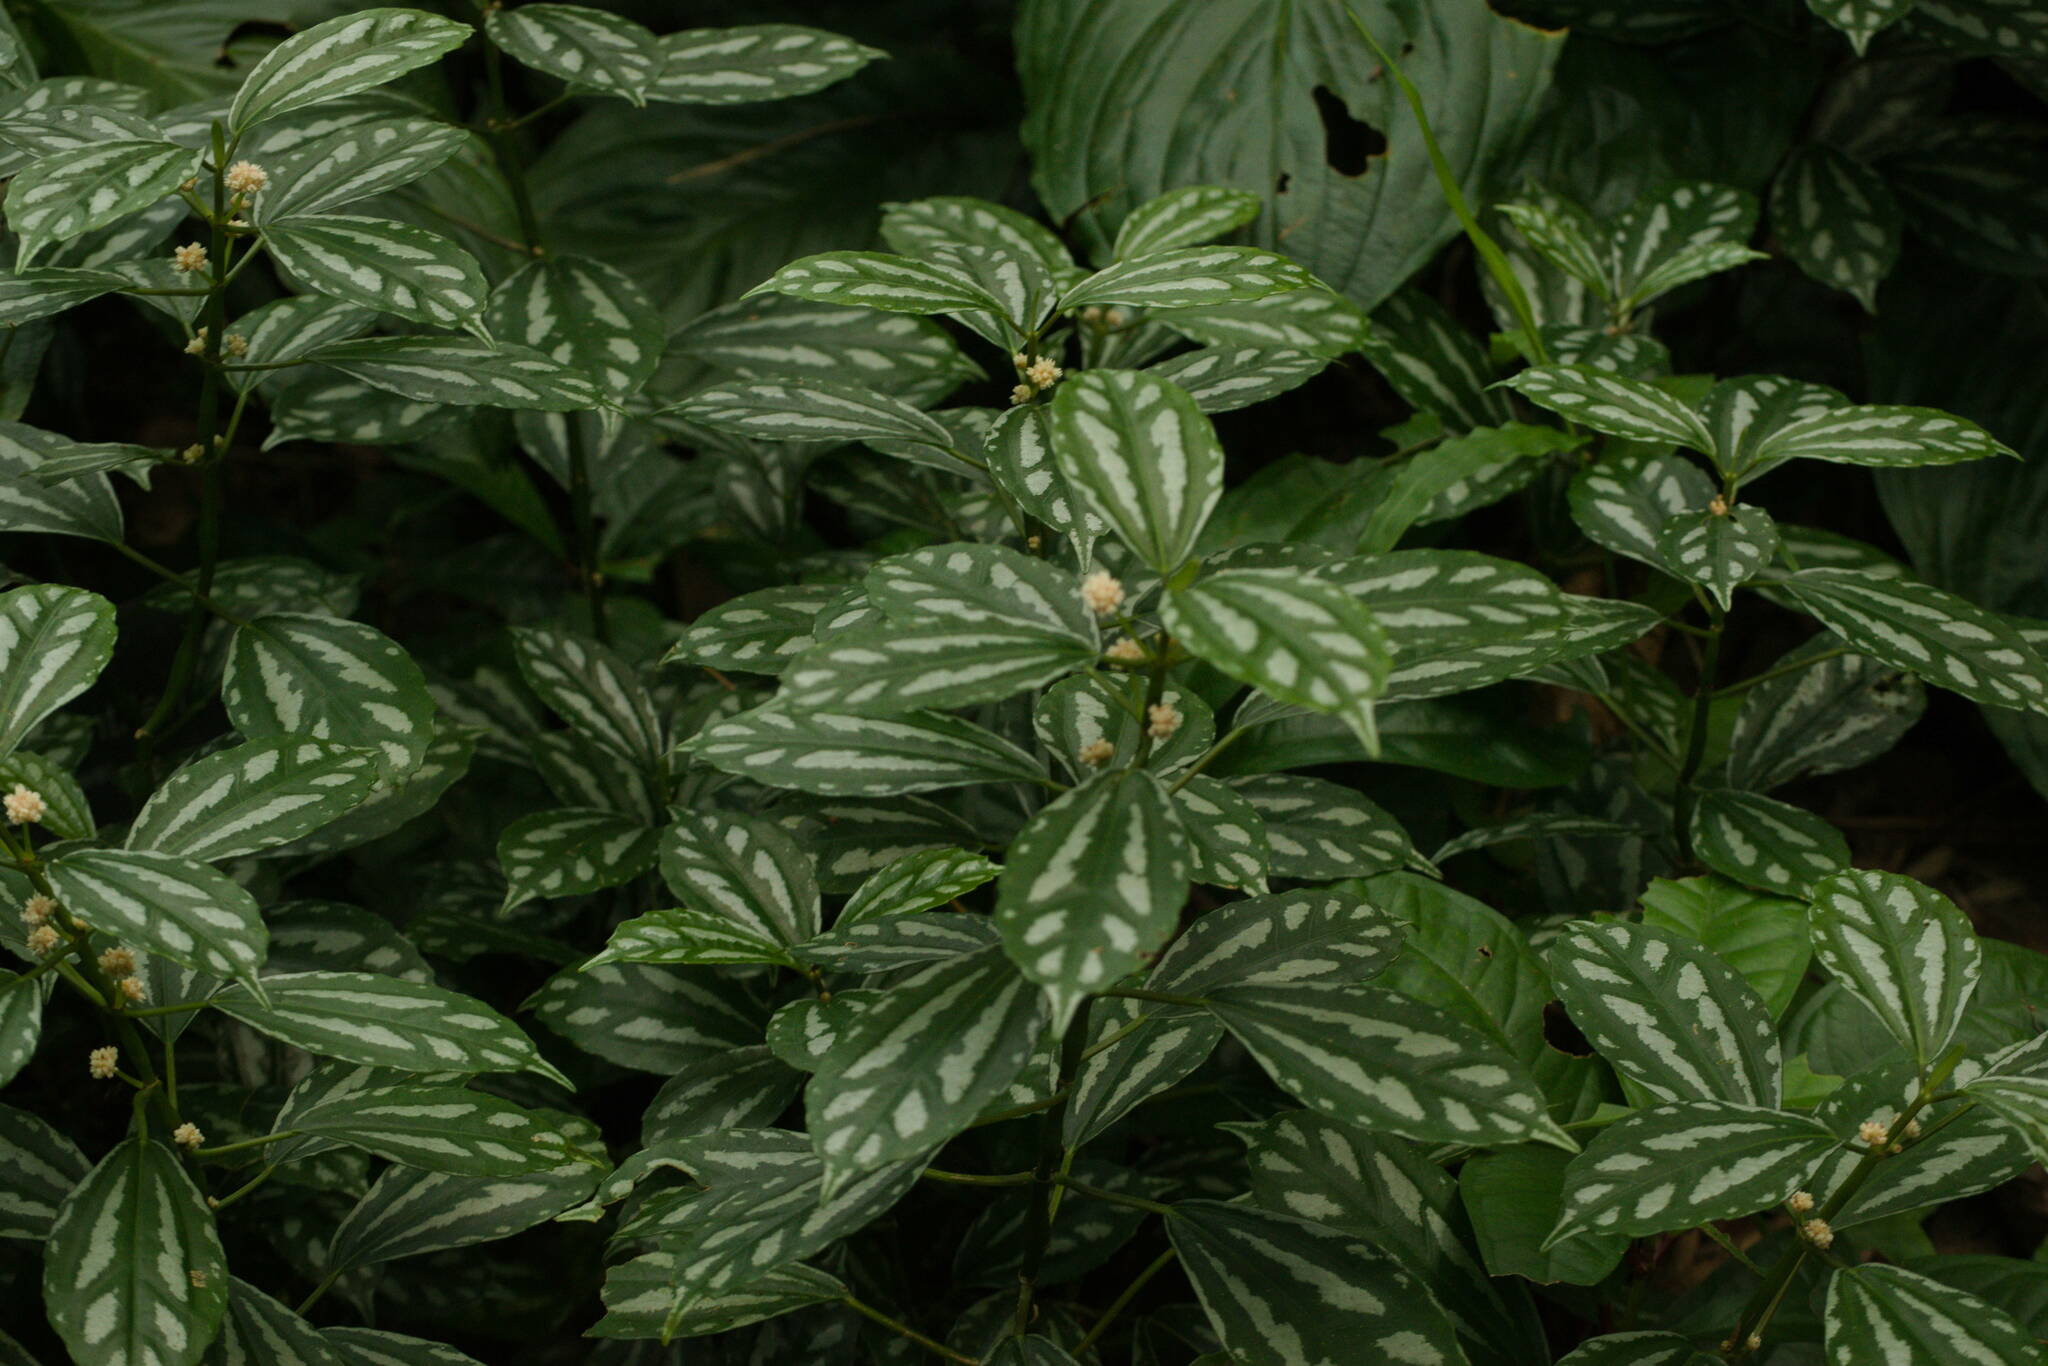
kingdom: Plantae
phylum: Tracheophyta
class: Magnoliopsida
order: Rosales
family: Urticaceae
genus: Pilea
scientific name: Pilea cadierei
